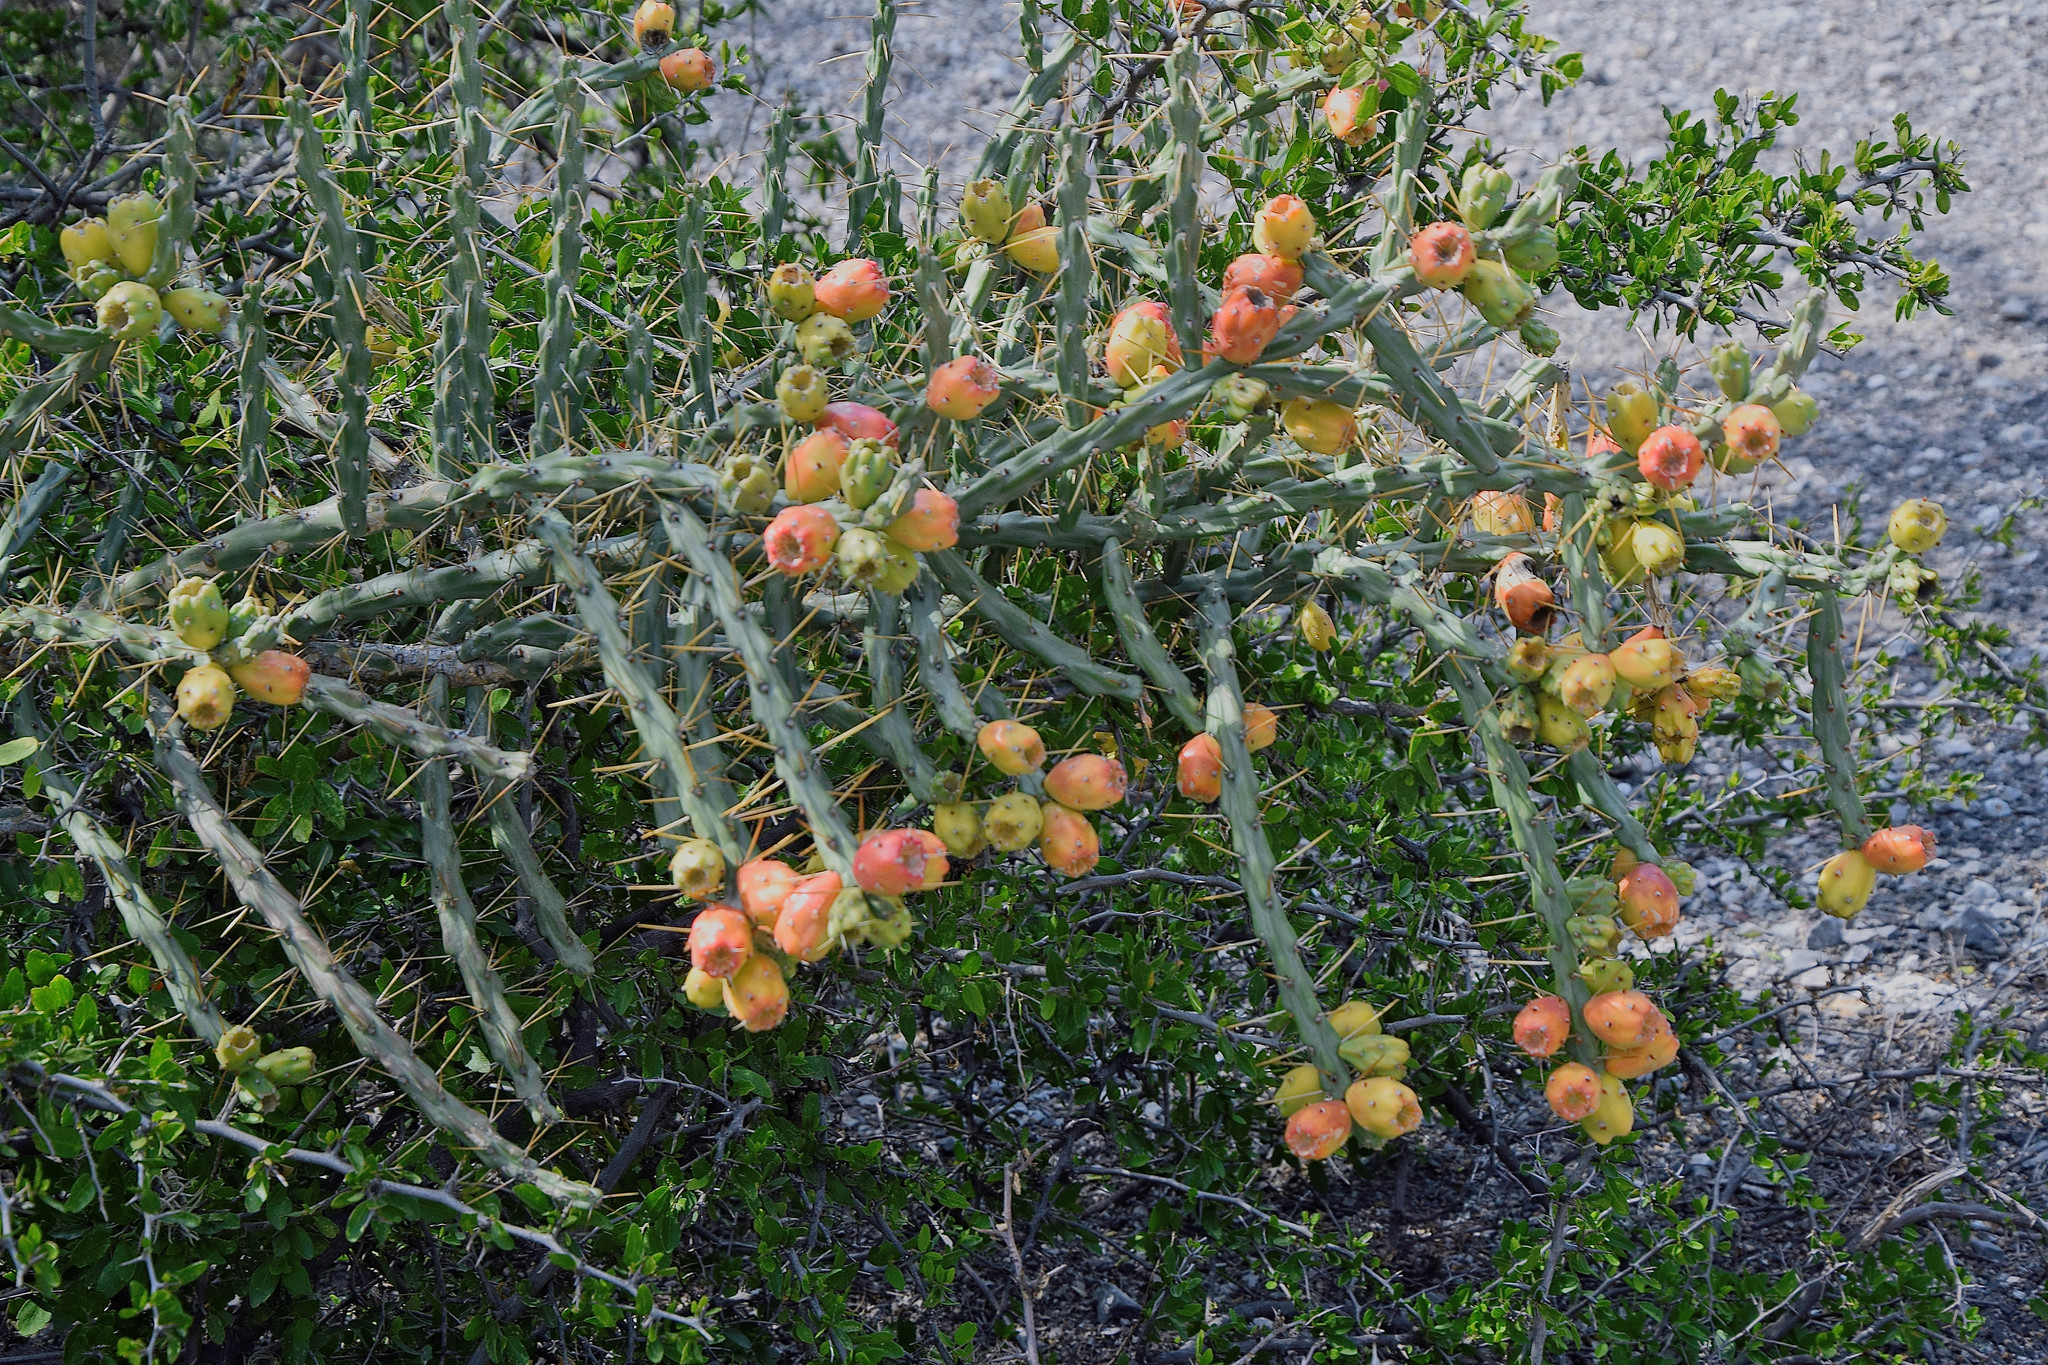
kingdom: Plantae
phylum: Tracheophyta
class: Magnoliopsida
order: Caryophyllales
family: Cactaceae
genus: Cylindropuntia
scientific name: Cylindropuntia kleiniae
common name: Klein's cholla
